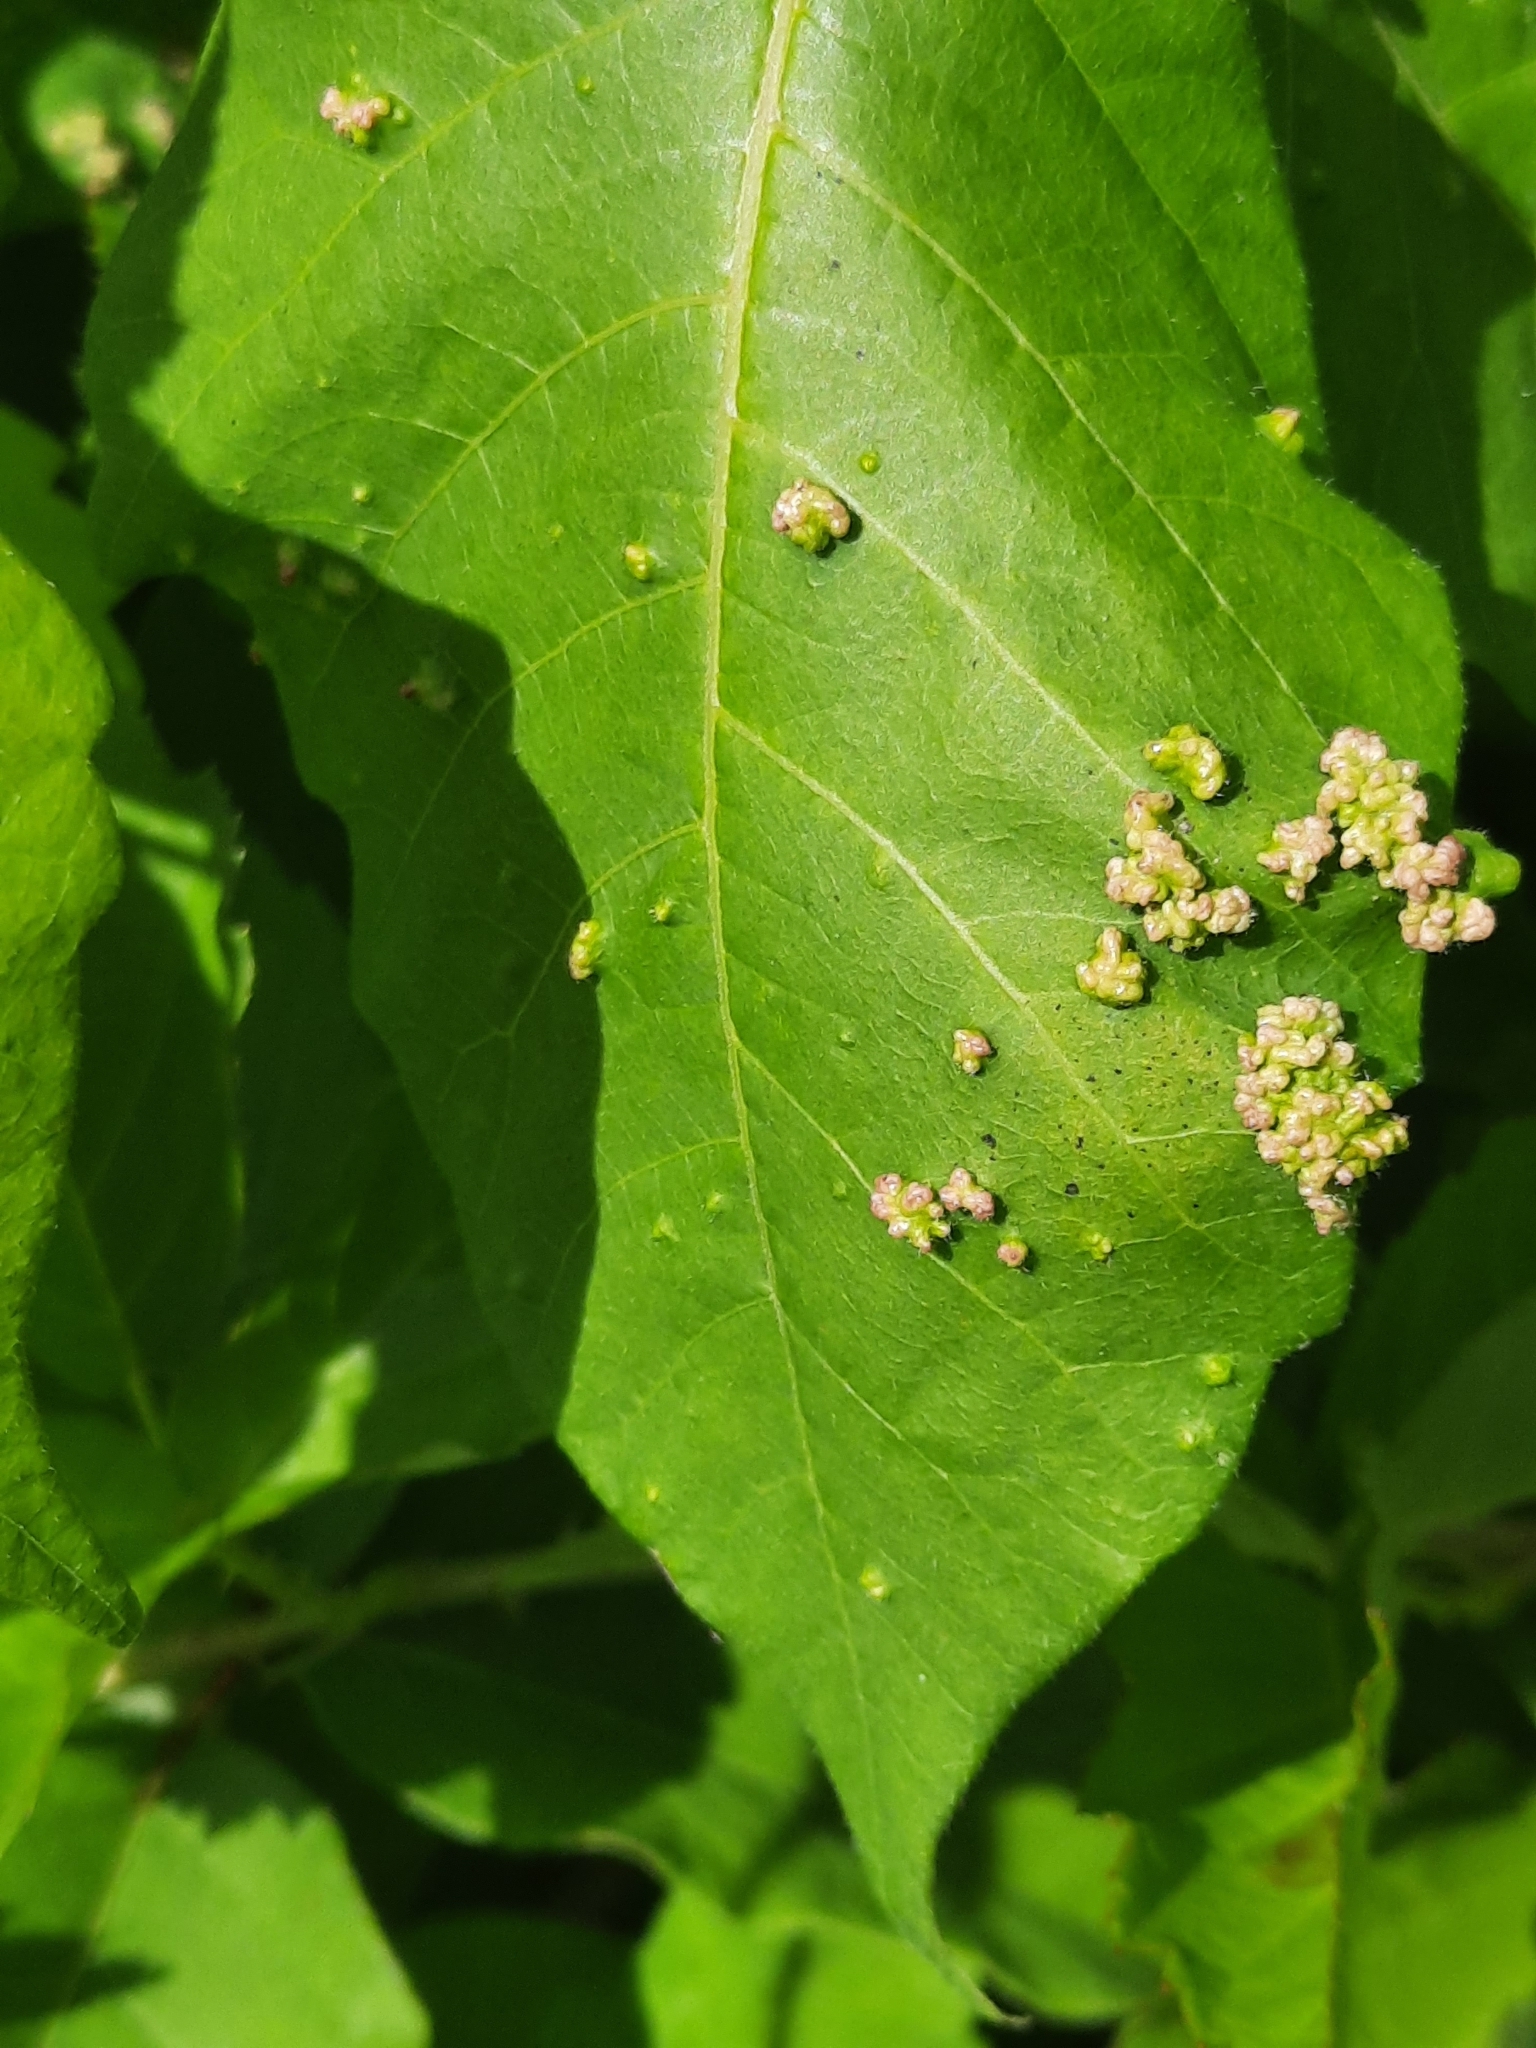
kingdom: Animalia
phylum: Arthropoda
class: Arachnida
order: Trombidiformes
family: Eriophyidae
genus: Aculops
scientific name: Aculops
